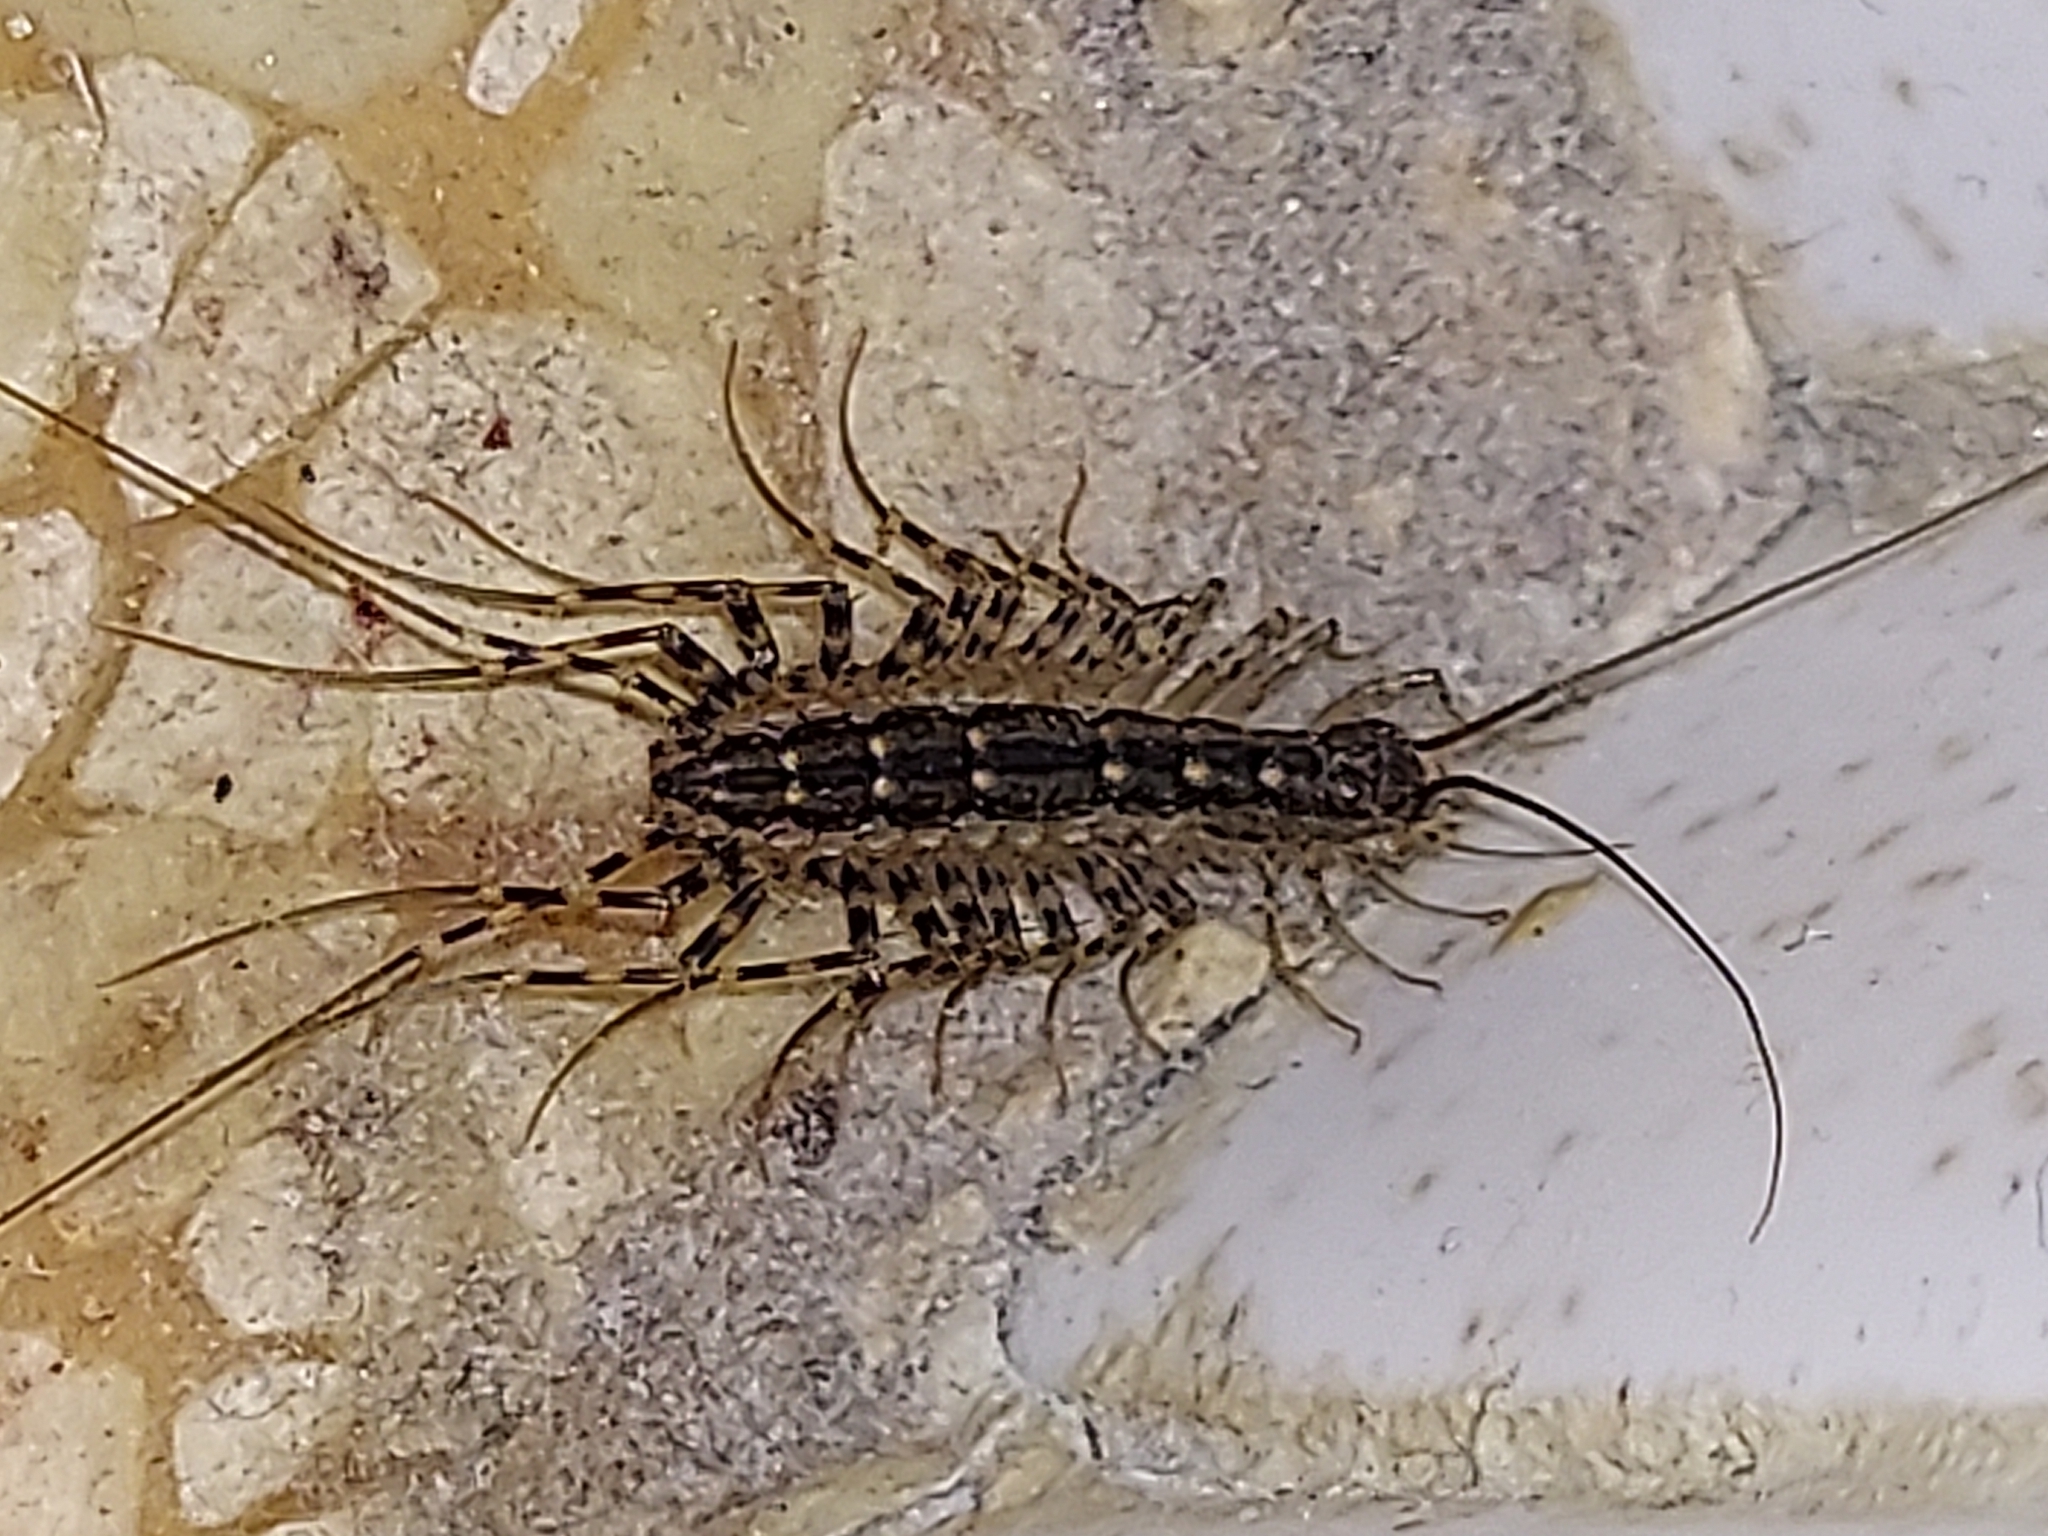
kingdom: Animalia
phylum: Arthropoda
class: Chilopoda
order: Scutigeromorpha
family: Scutigeridae
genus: Thereuonema
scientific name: Thereuonema tuberculata
